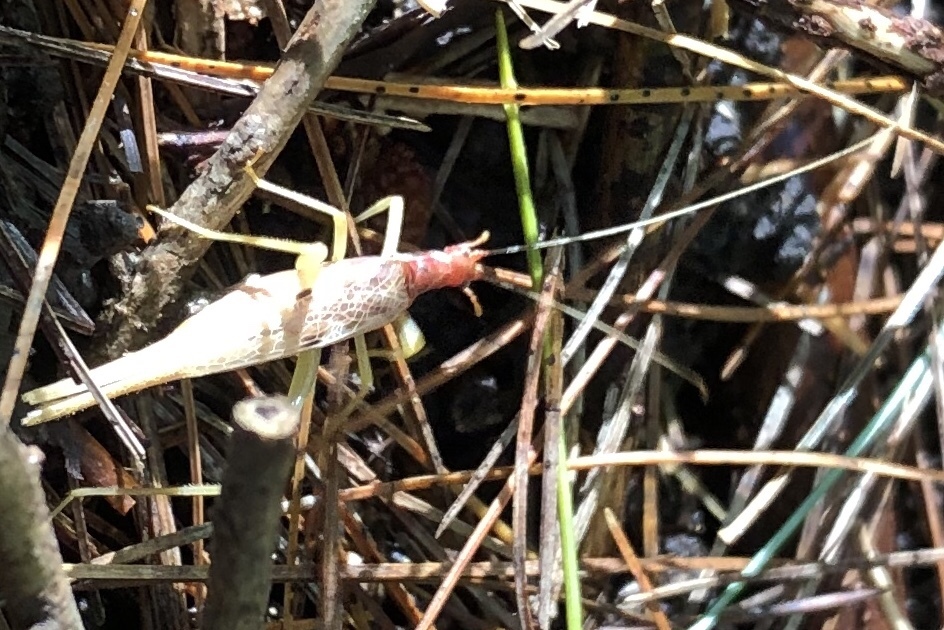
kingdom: Animalia
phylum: Arthropoda
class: Insecta
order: Orthoptera
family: Gryllidae
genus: Neoxabea
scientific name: Neoxabea bipunctata
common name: Two-spotted tree cricket
